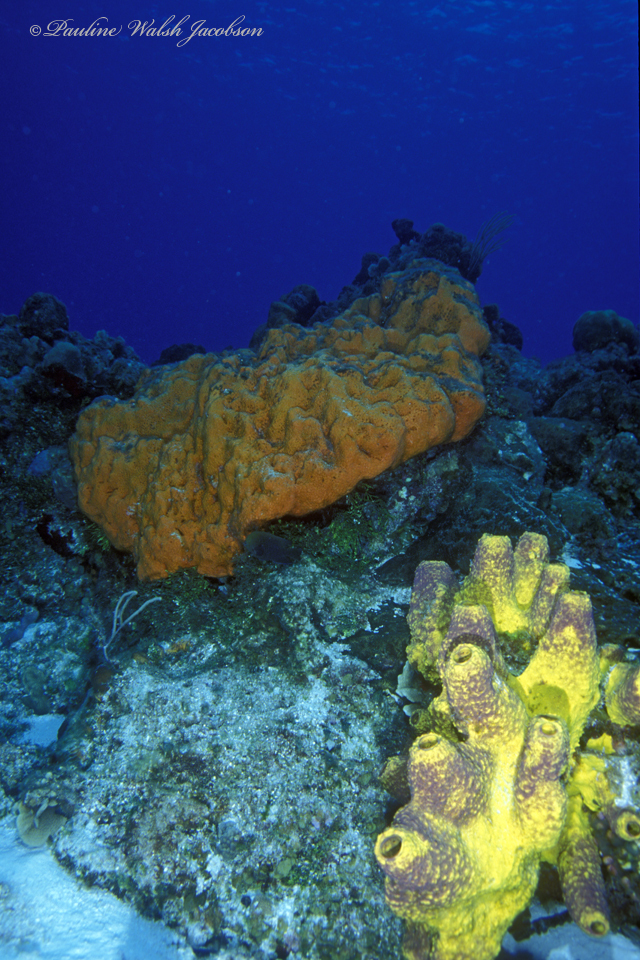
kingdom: Animalia
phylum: Porifera
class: Demospongiae
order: Verongiida
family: Aplysinidae
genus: Aiolochroia
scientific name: Aiolochroia crassa
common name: Branching tube sponge
